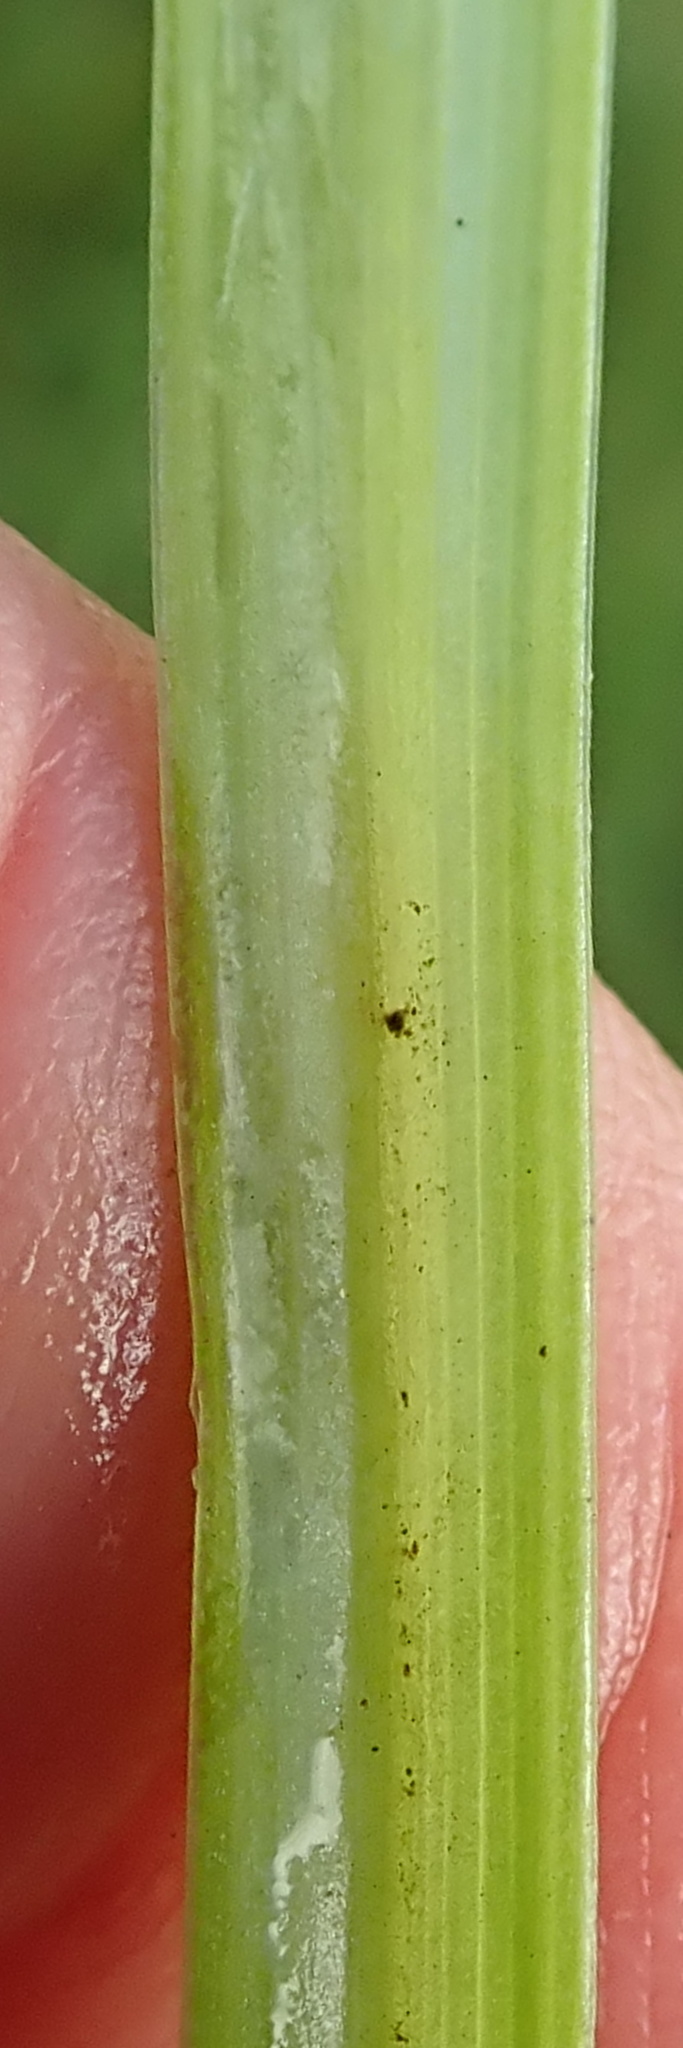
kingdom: Plantae
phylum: Tracheophyta
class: Liliopsida
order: Asparagales
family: Asphodelaceae
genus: Kniphofia
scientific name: Kniphofia buchananii
